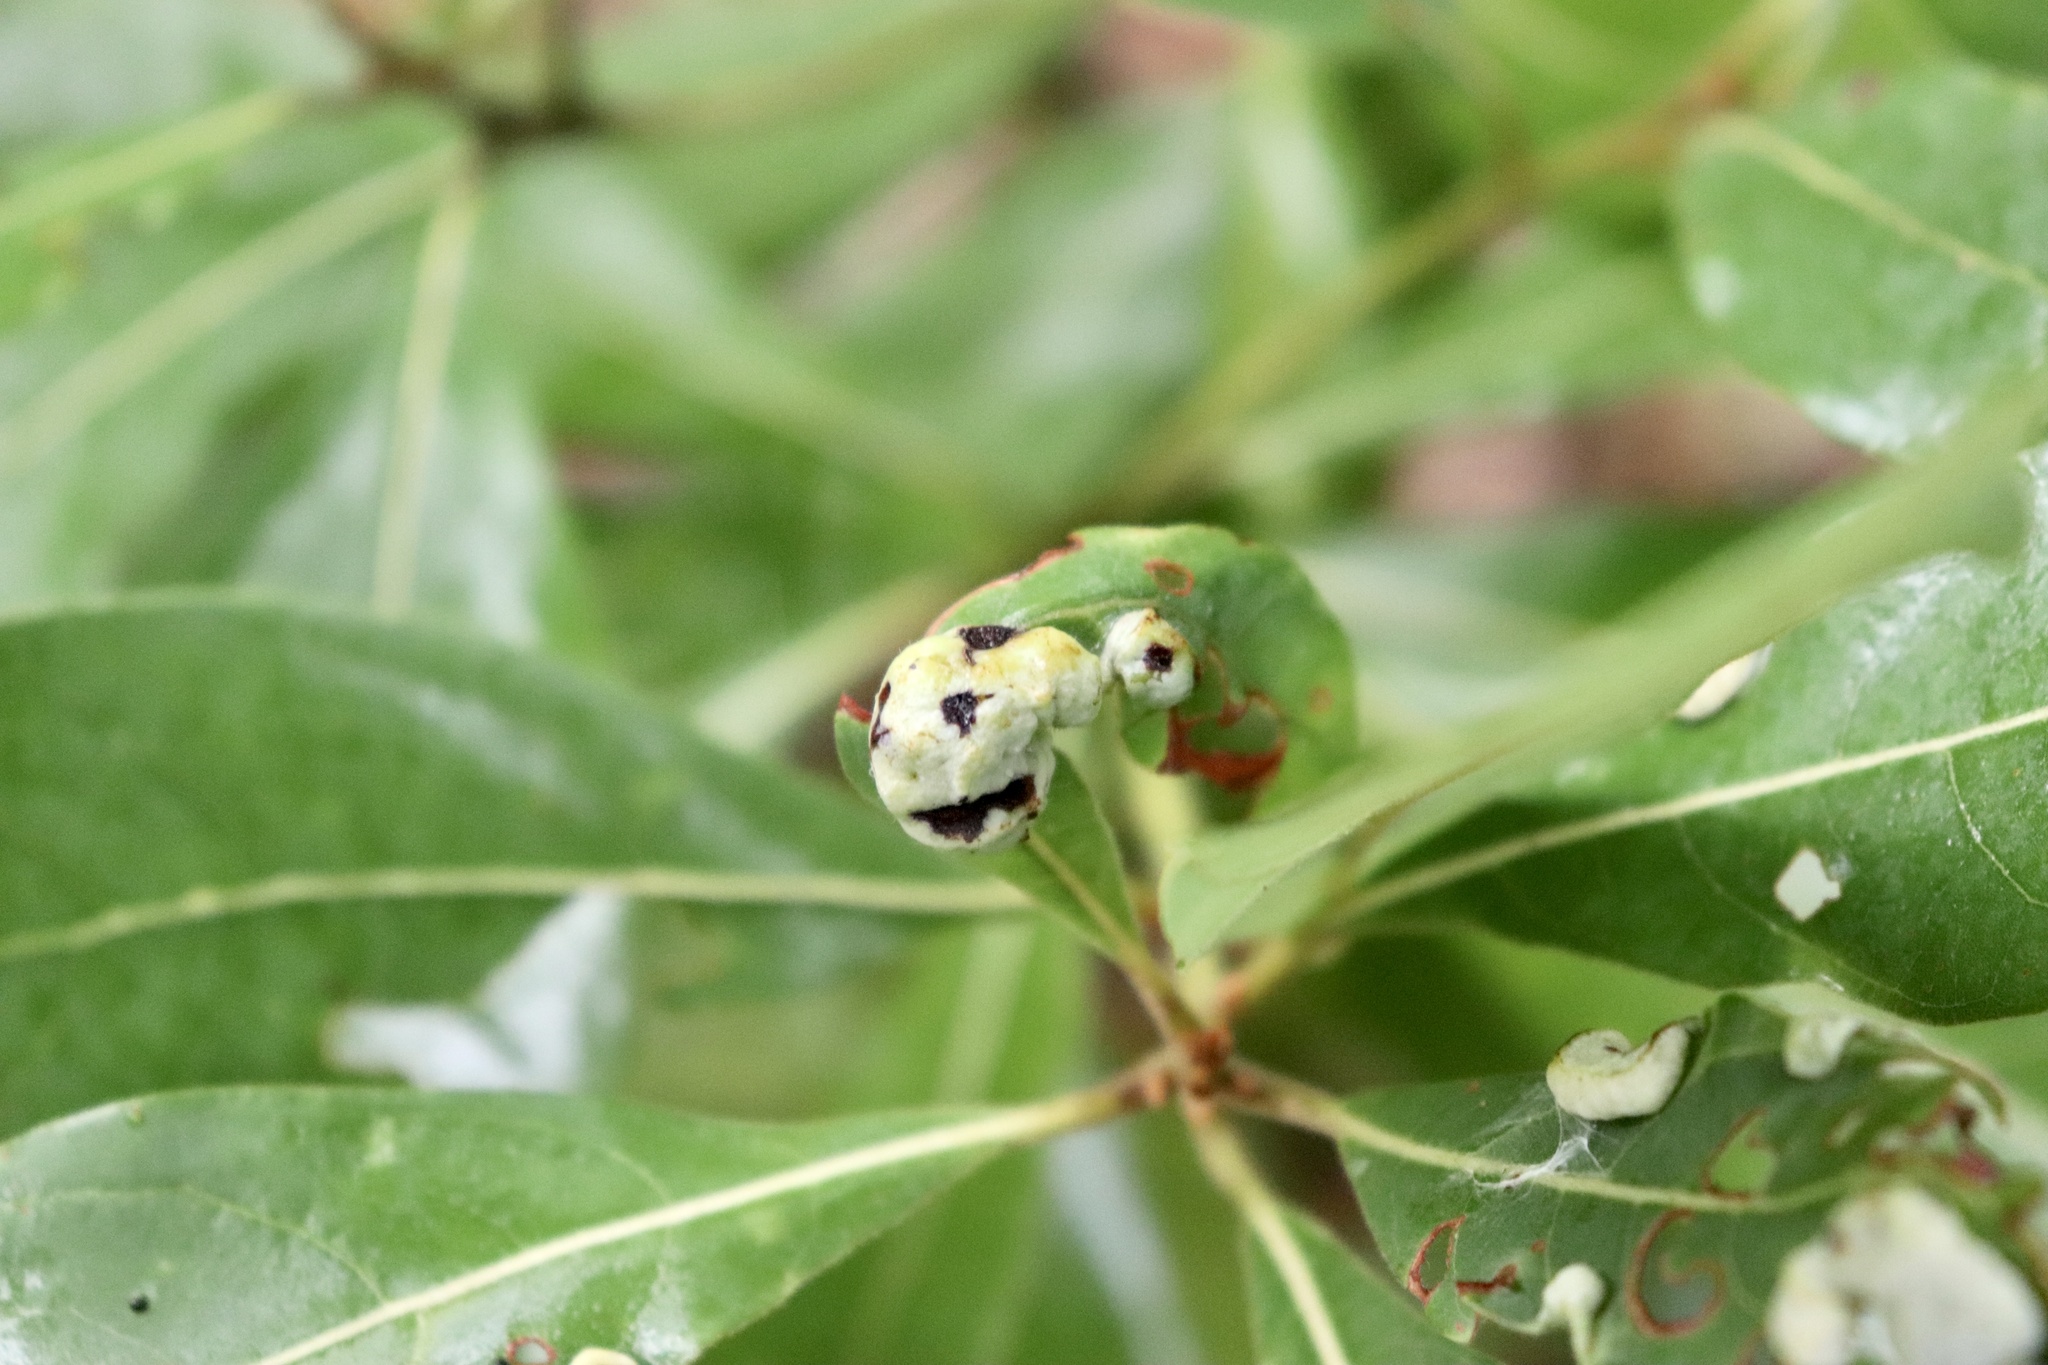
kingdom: Animalia
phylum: Arthropoda
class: Insecta
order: Hemiptera
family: Triozidae
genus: Trioza
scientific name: Trioza magnoliae
